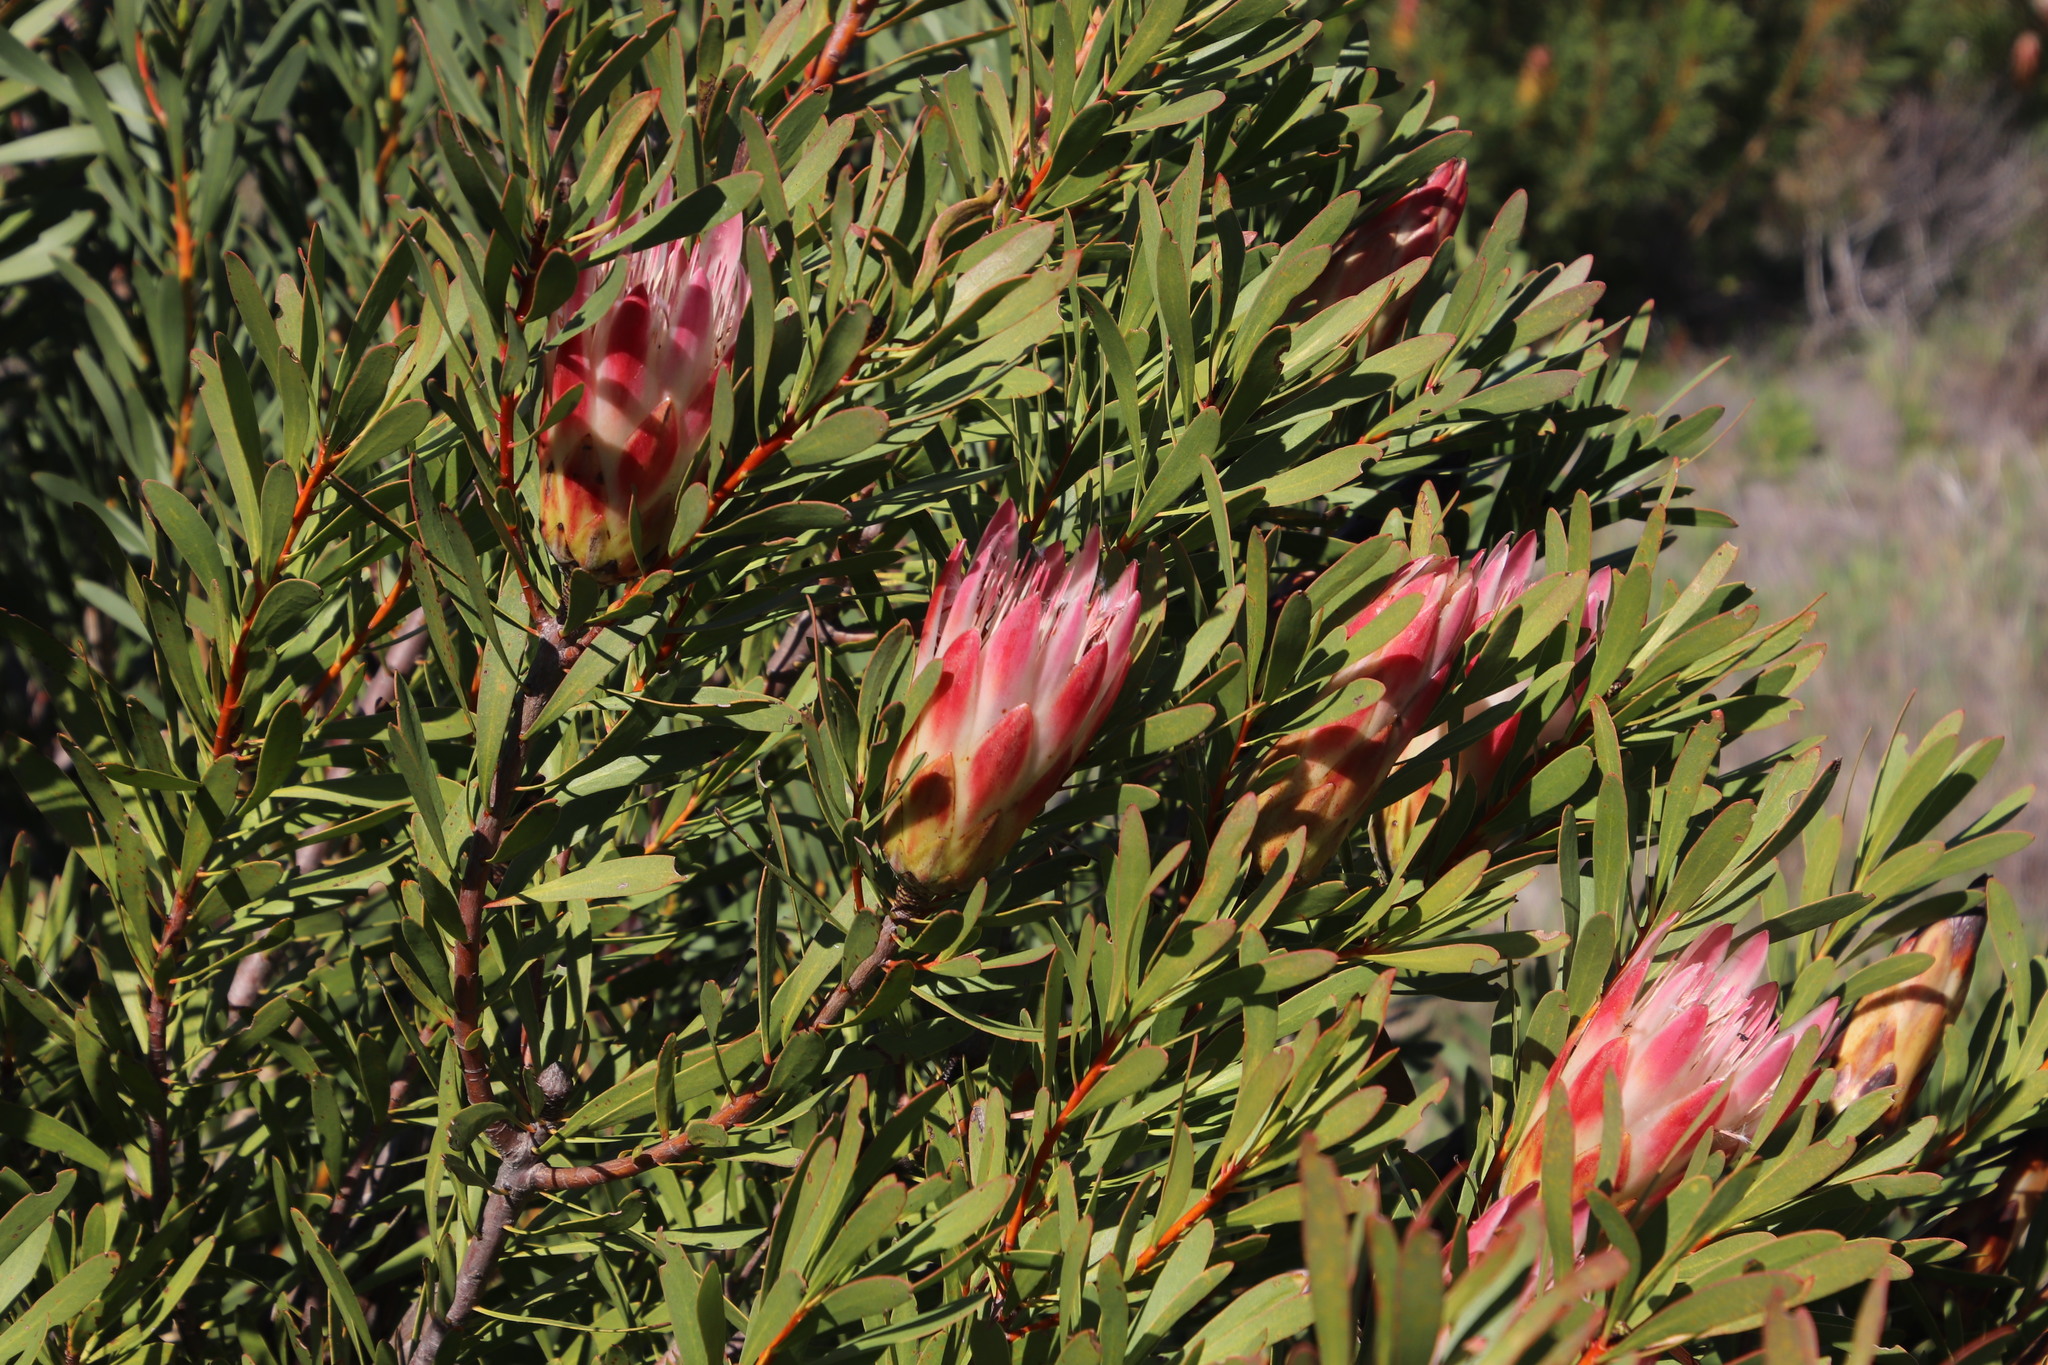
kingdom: Plantae
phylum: Tracheophyta
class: Magnoliopsida
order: Proteales
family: Proteaceae
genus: Protea
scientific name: Protea repens
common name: Sugarbush
